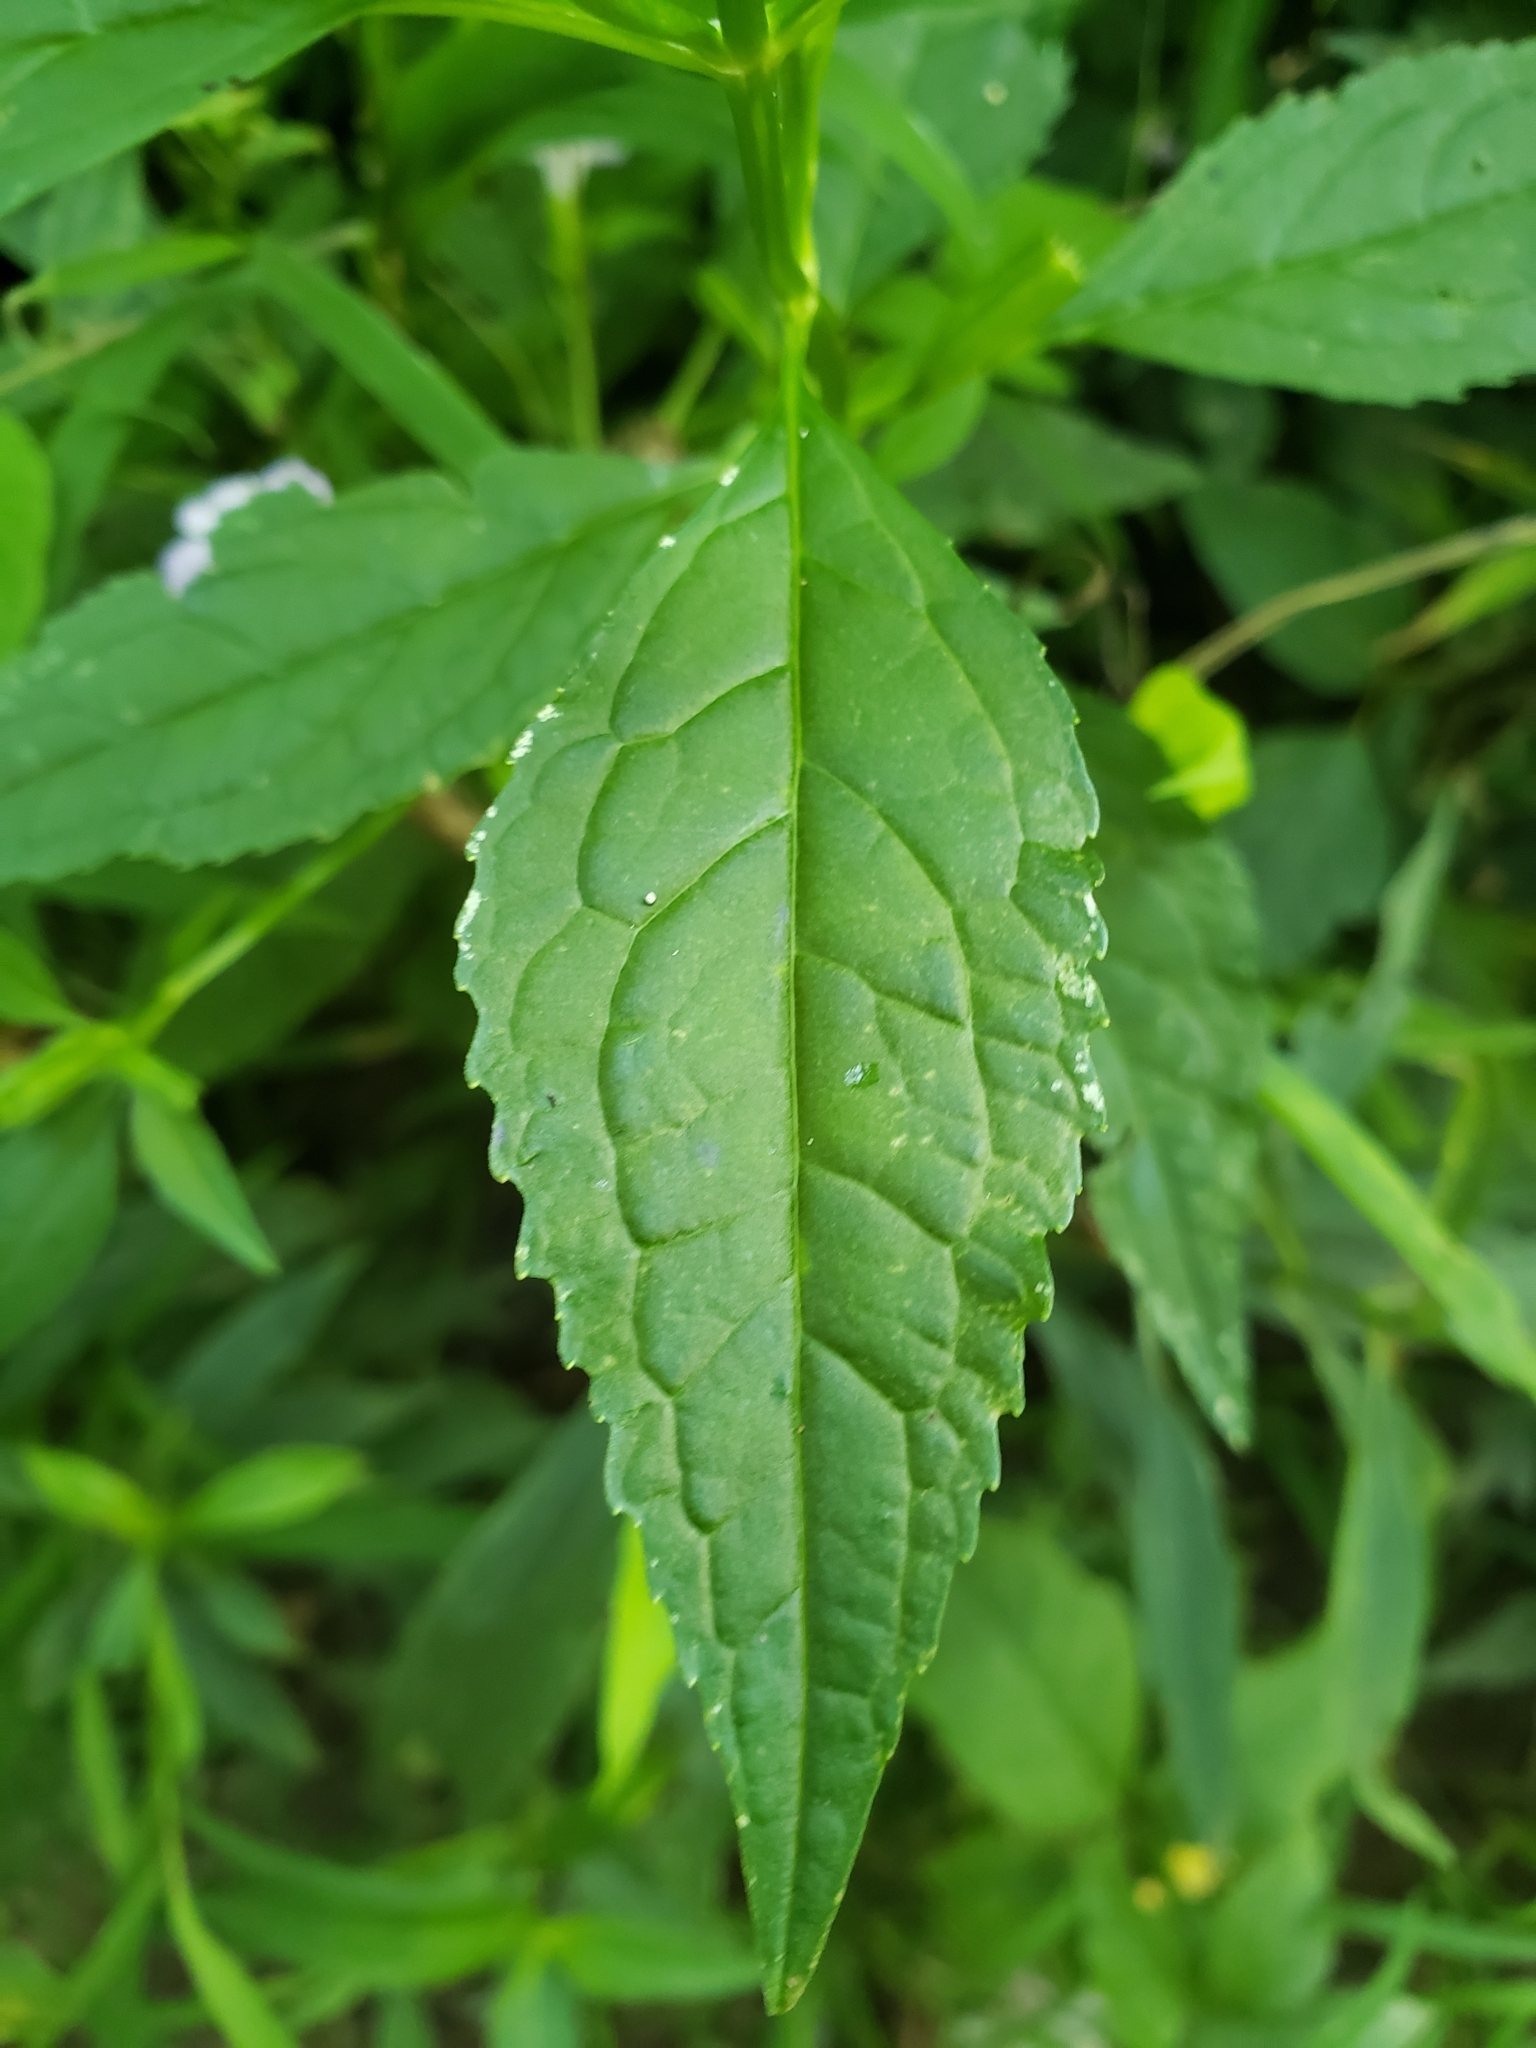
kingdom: Plantae
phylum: Tracheophyta
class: Magnoliopsida
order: Lamiales
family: Phrymaceae
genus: Mimulus
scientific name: Mimulus alatus
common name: Sharp-wing monkey-flower
